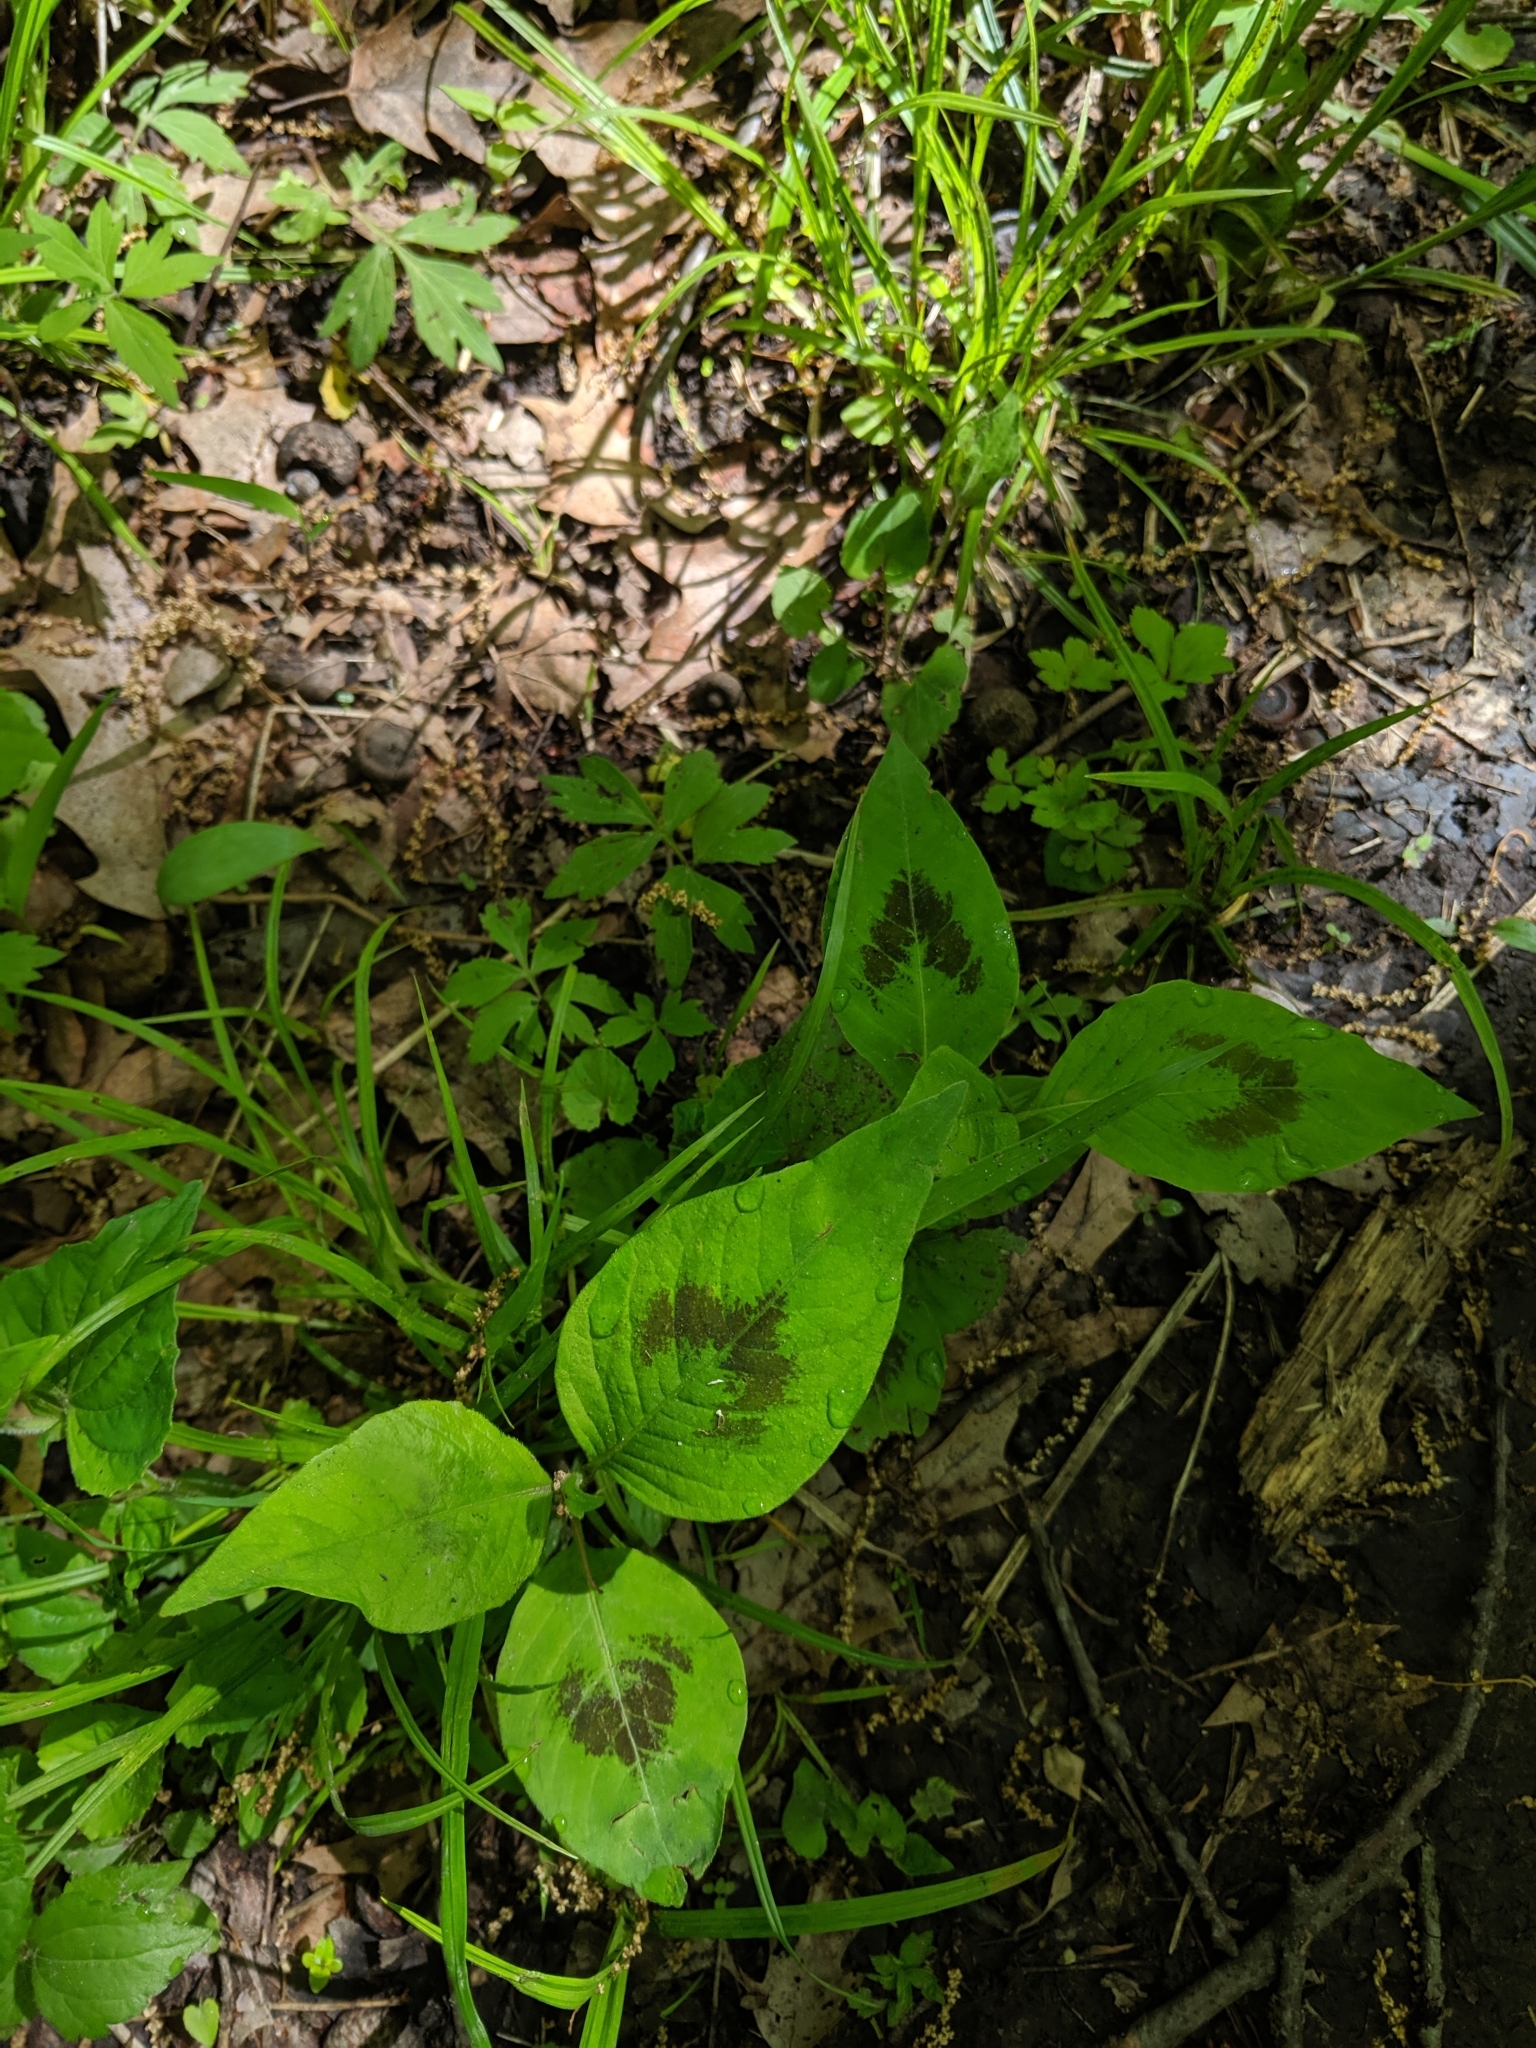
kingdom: Plantae
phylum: Tracheophyta
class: Magnoliopsida
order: Caryophyllales
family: Polygonaceae
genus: Persicaria
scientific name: Persicaria virginiana
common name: Jumpseed
